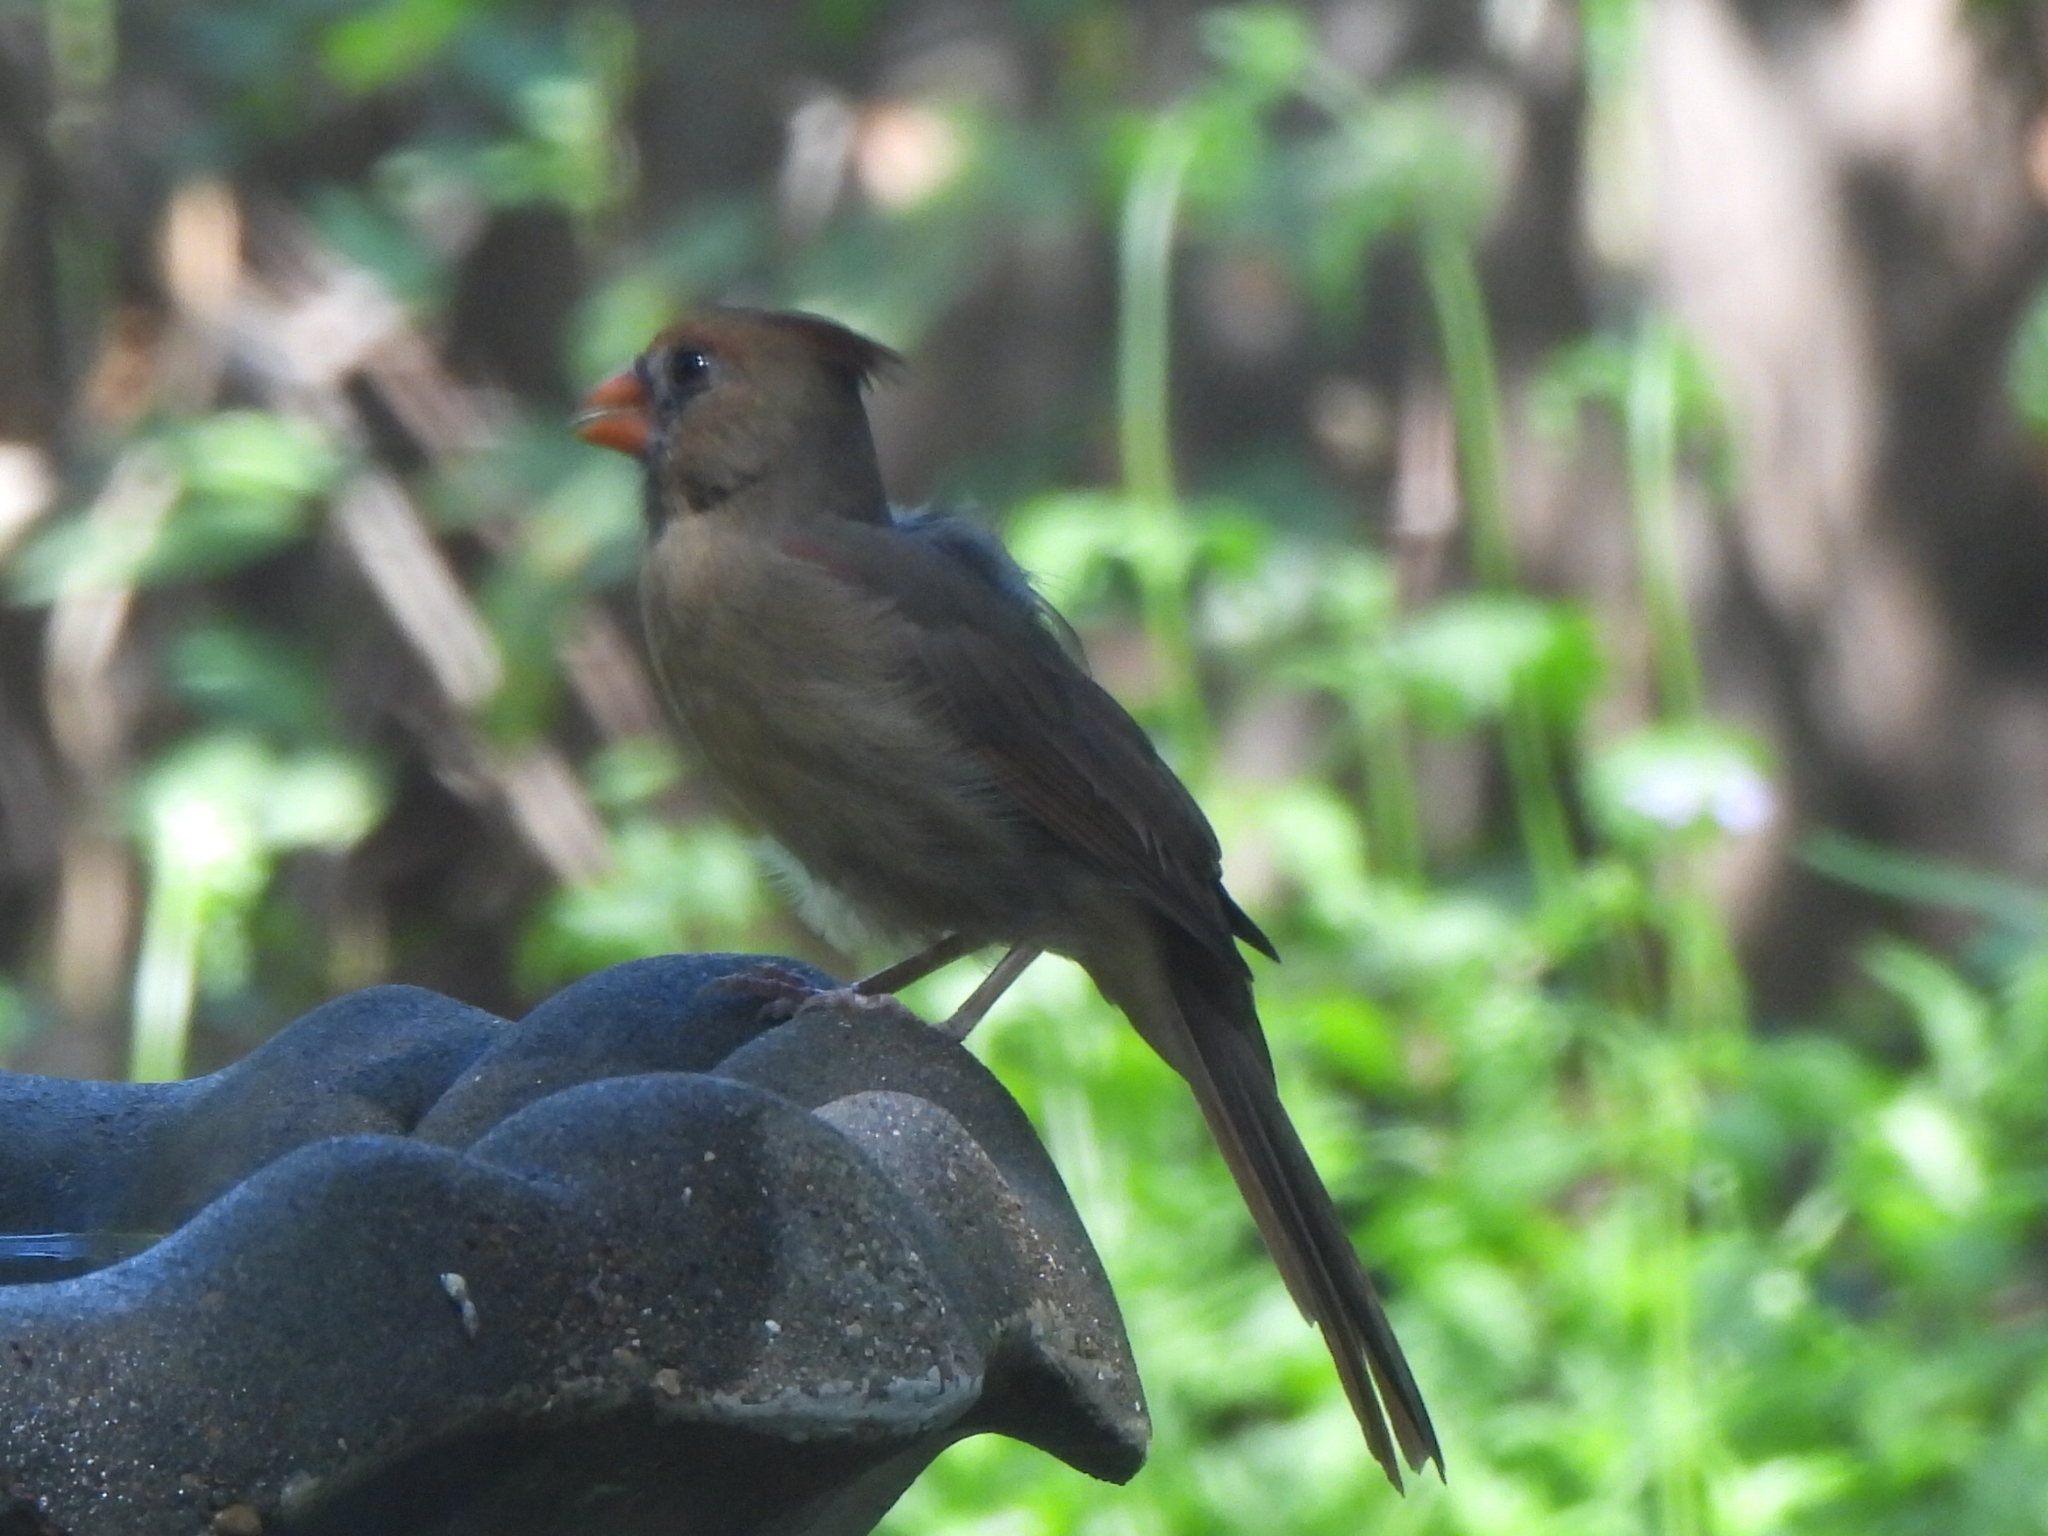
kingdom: Animalia
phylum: Chordata
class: Aves
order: Passeriformes
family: Cardinalidae
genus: Cardinalis
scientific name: Cardinalis cardinalis
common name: Northern cardinal
